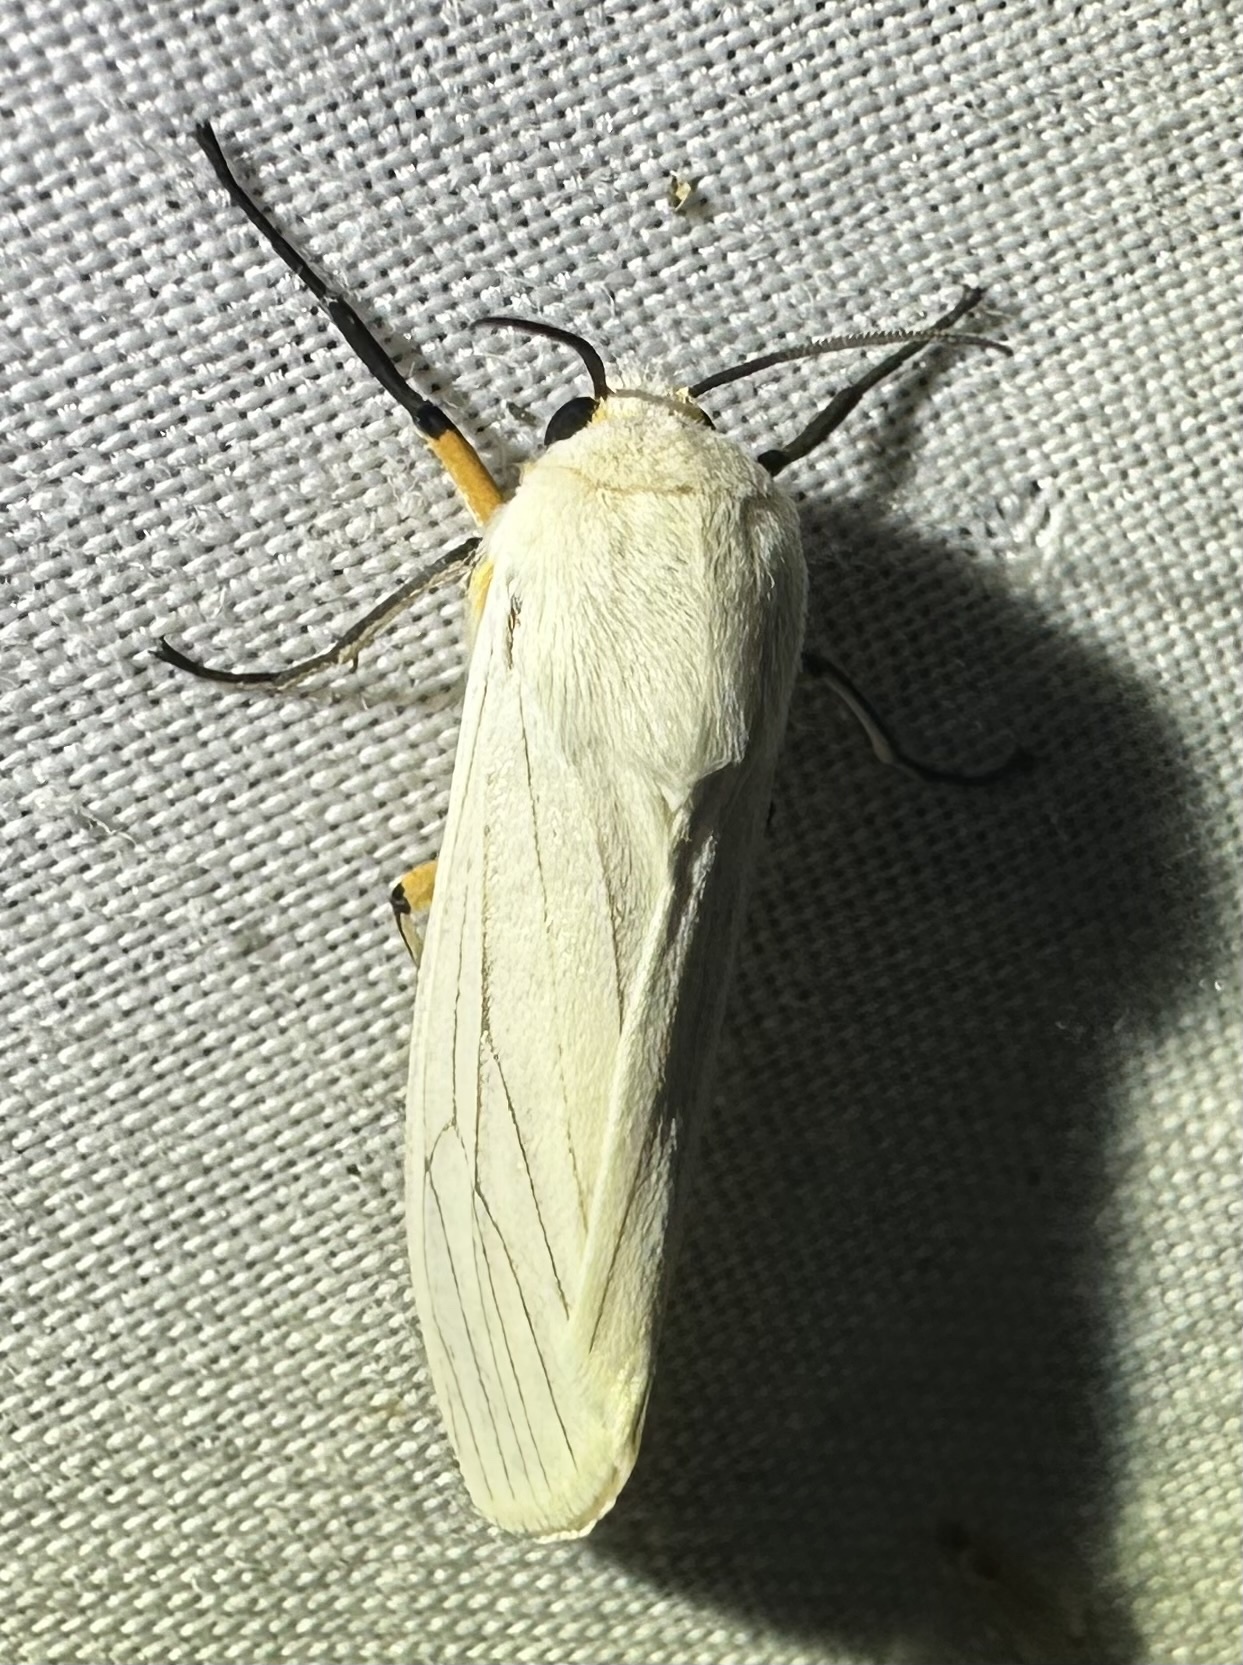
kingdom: Animalia
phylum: Arthropoda
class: Insecta
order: Lepidoptera
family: Erebidae
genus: Ustjuzhania
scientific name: Ustjuzhania lineata
